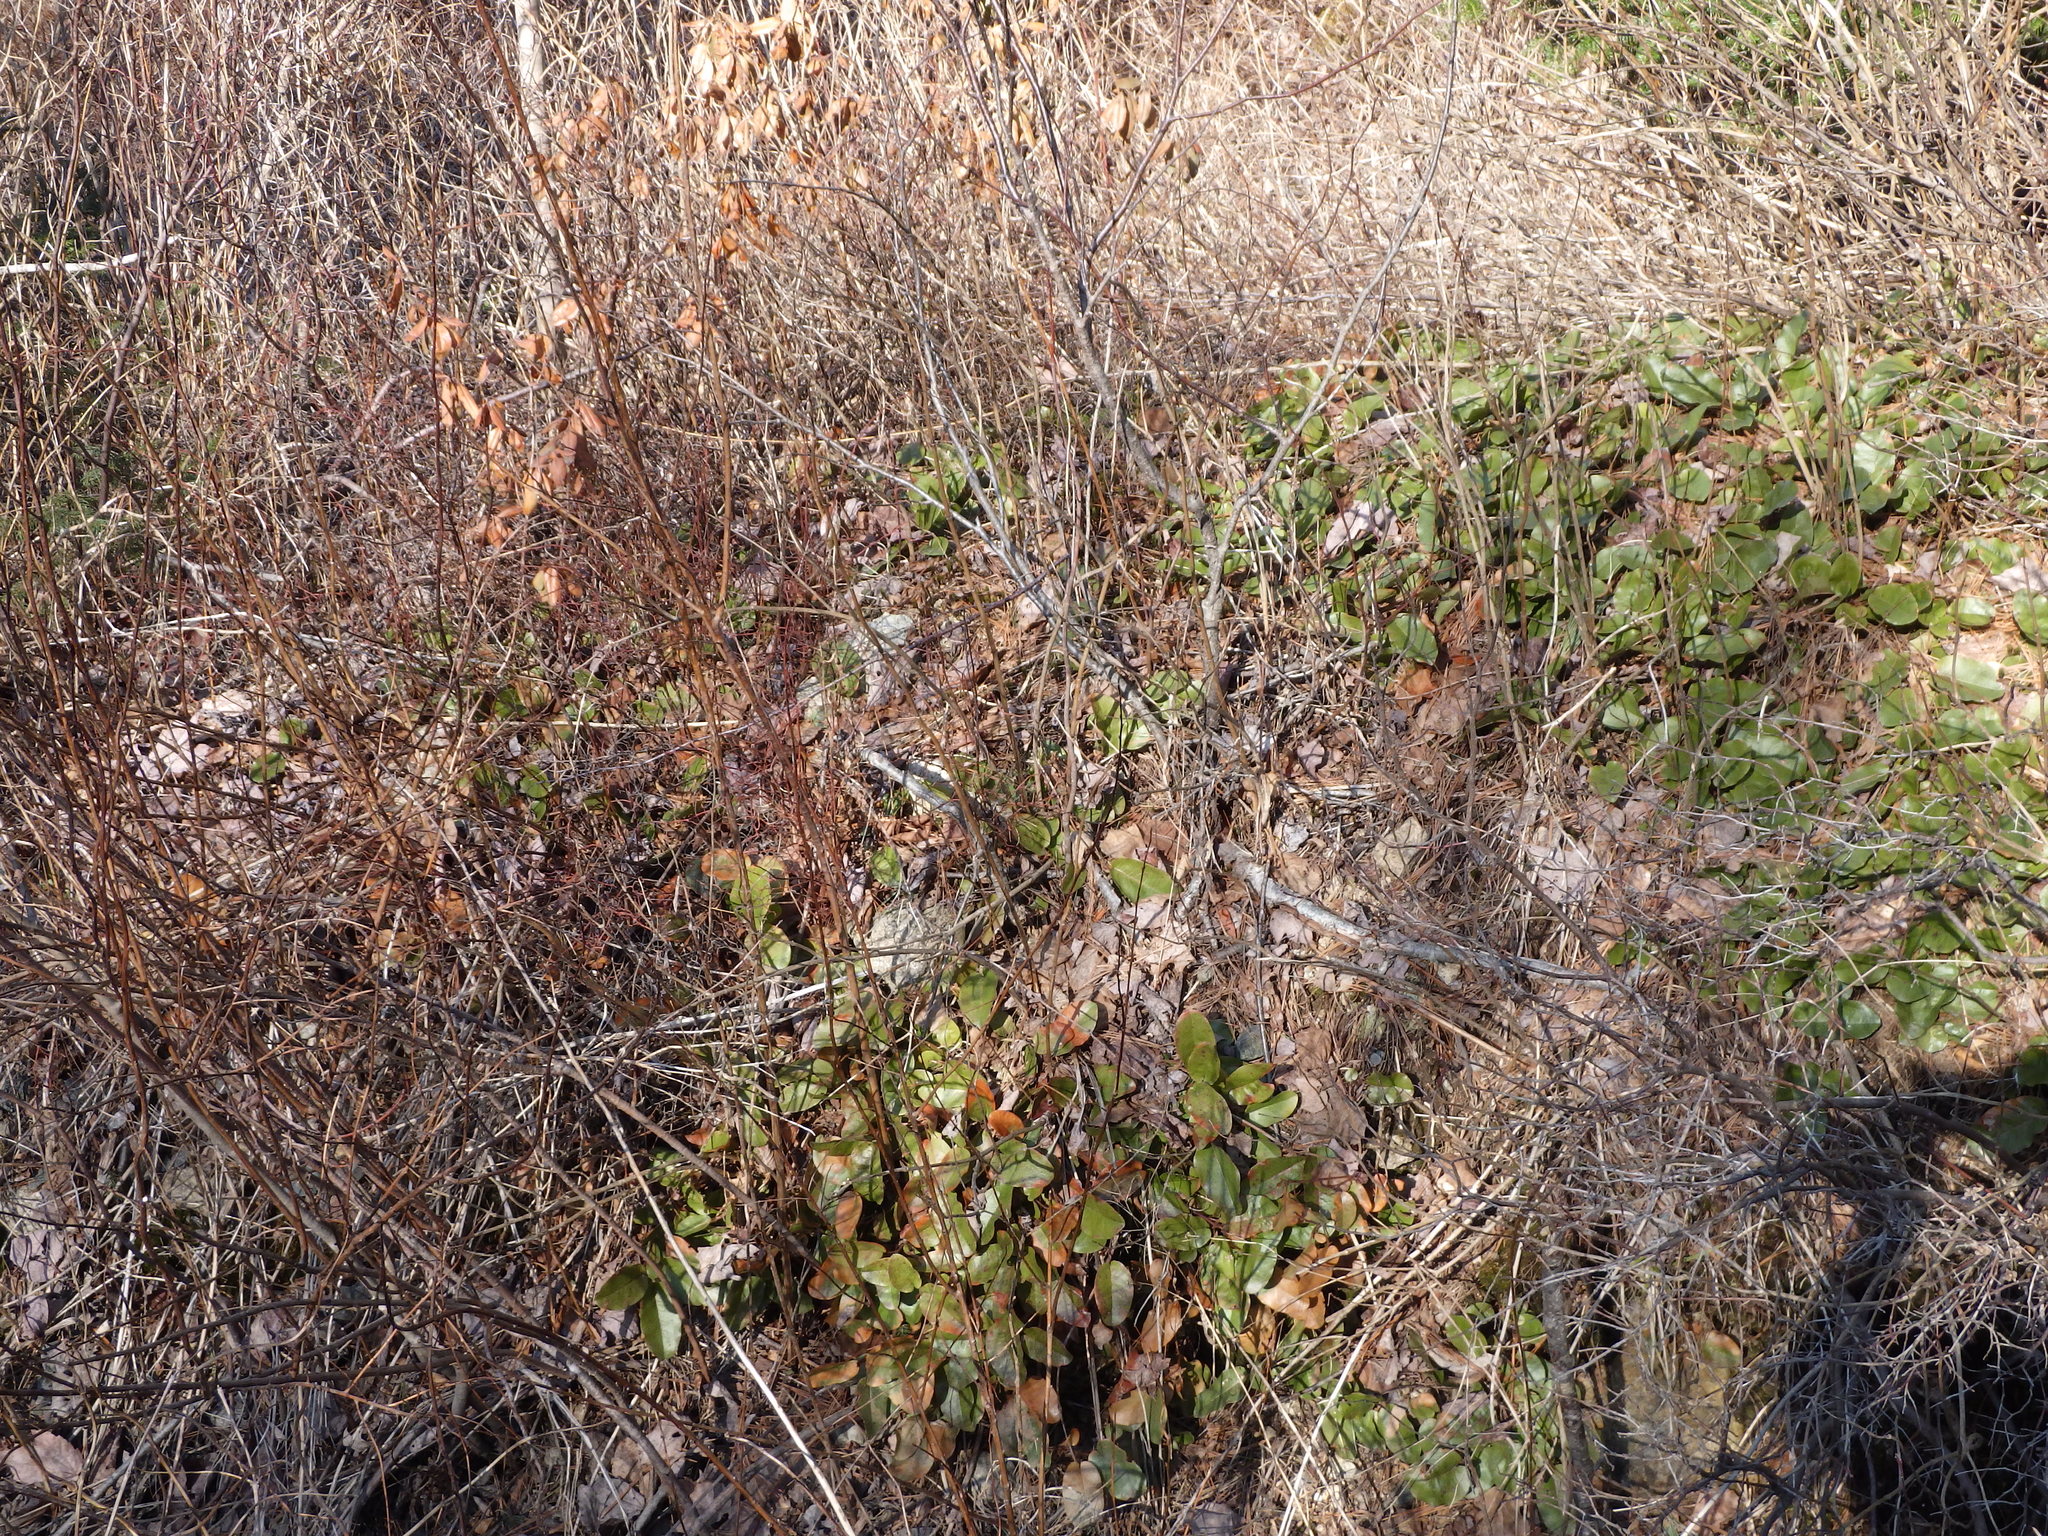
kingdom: Plantae
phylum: Tracheophyta
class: Magnoliopsida
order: Ericales
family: Ericaceae
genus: Epigaea
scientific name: Epigaea repens
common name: Gravelroot
